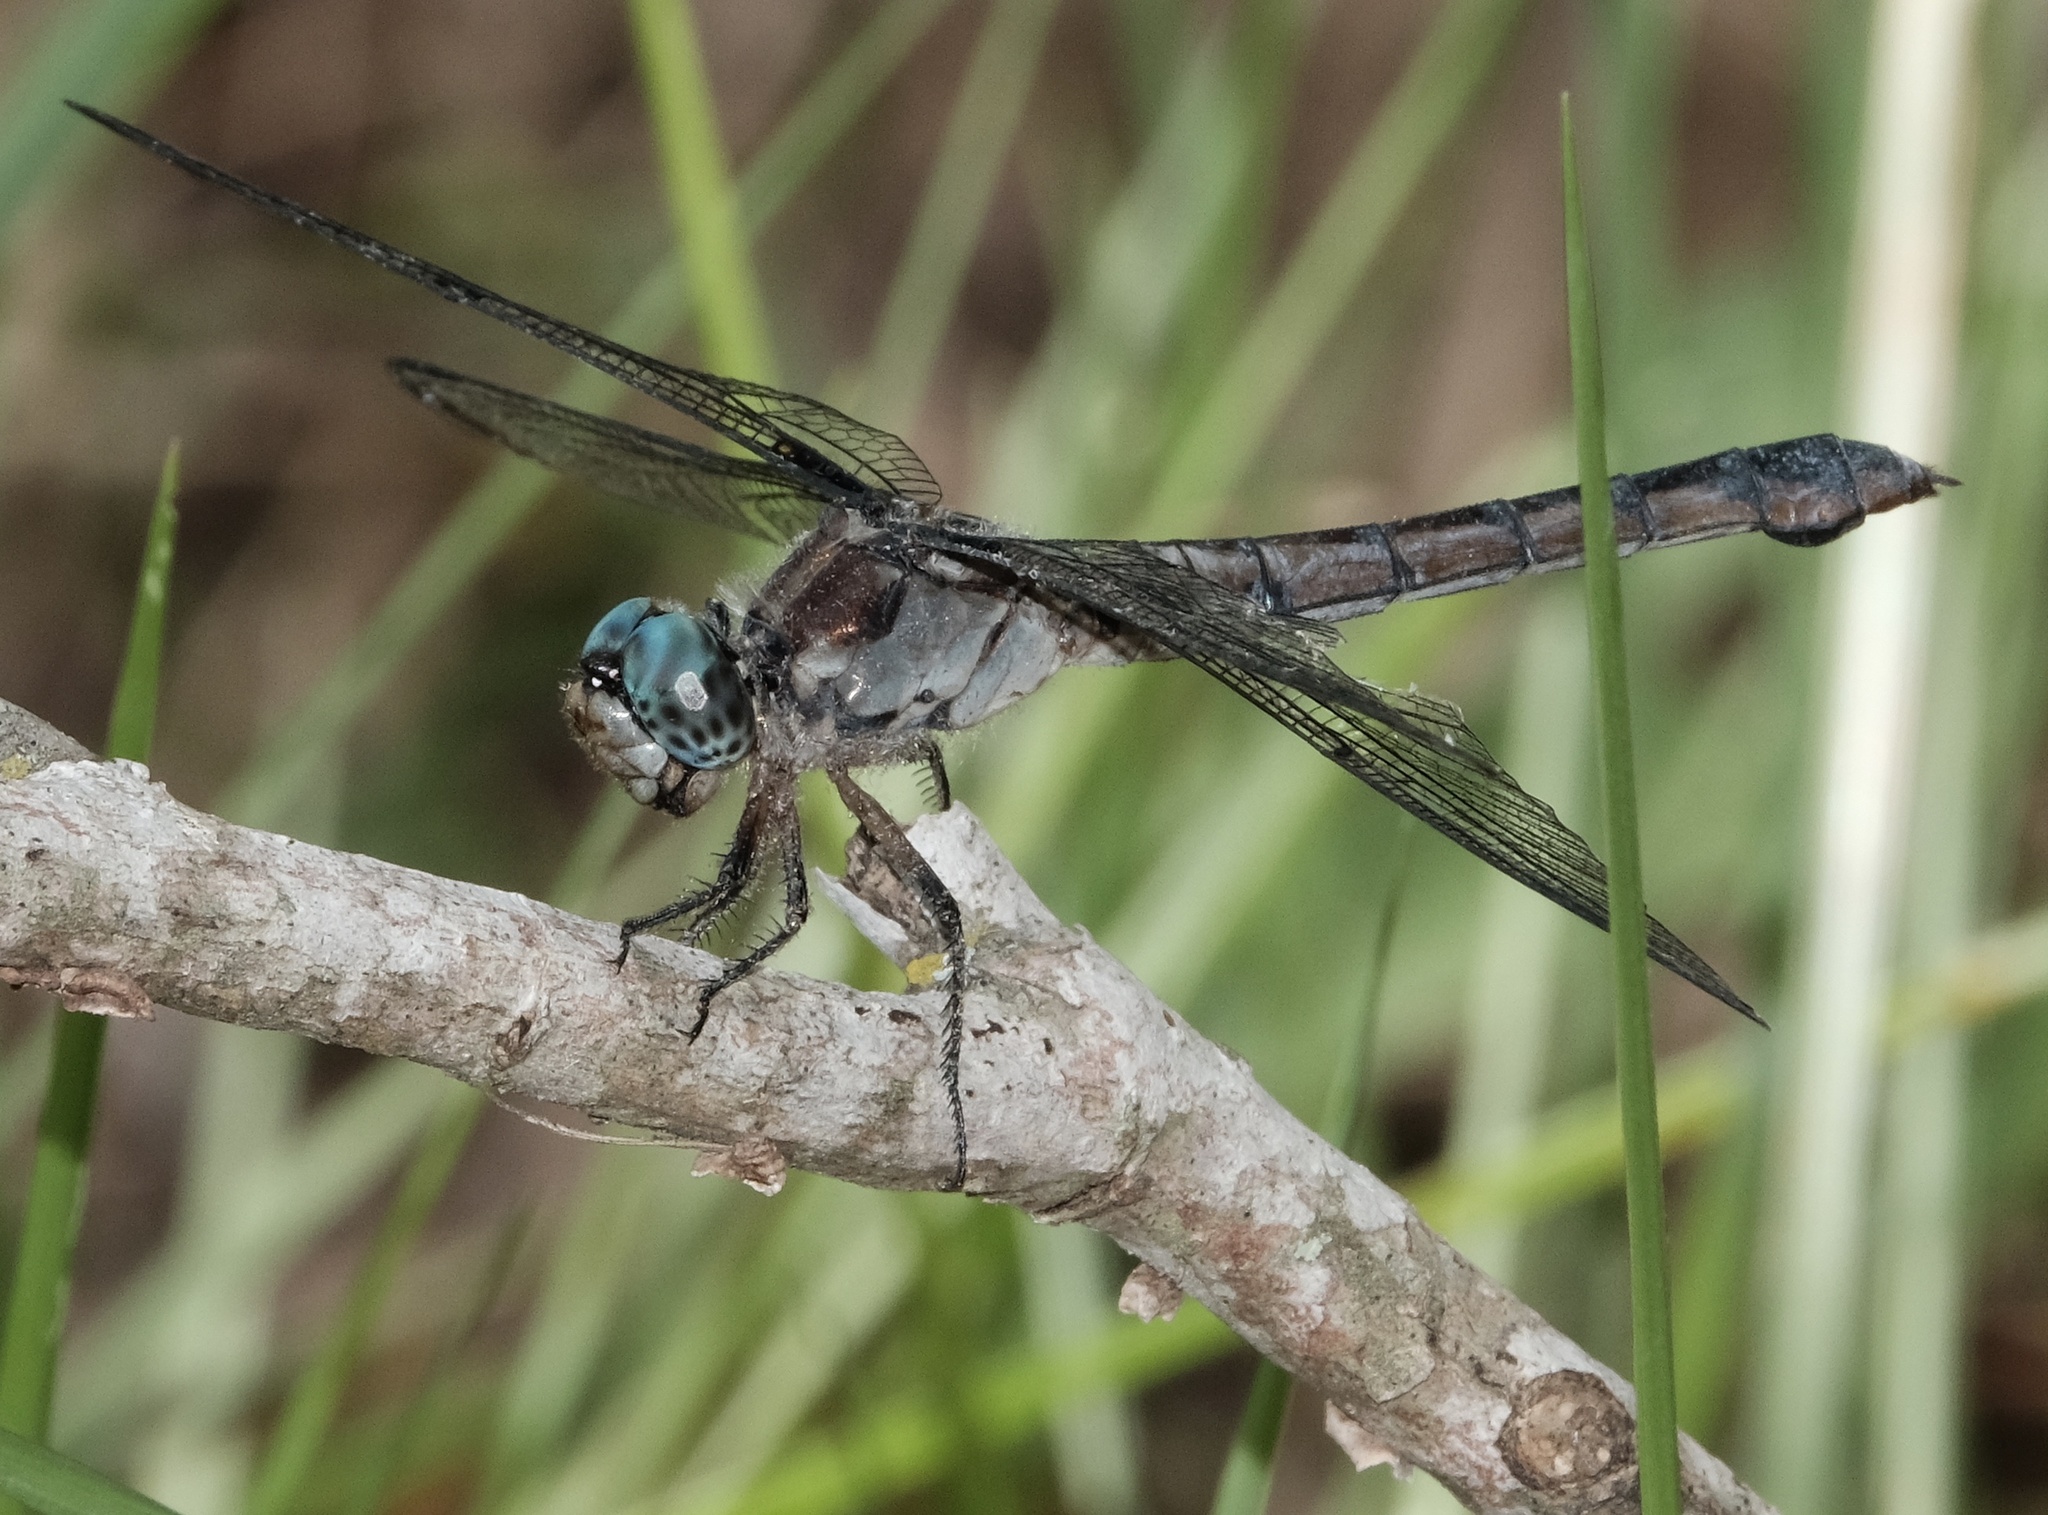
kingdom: Animalia
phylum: Arthropoda
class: Insecta
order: Odonata
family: Libellulidae
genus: Libellula
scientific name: Libellula vibrans
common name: Great blue skimmer
